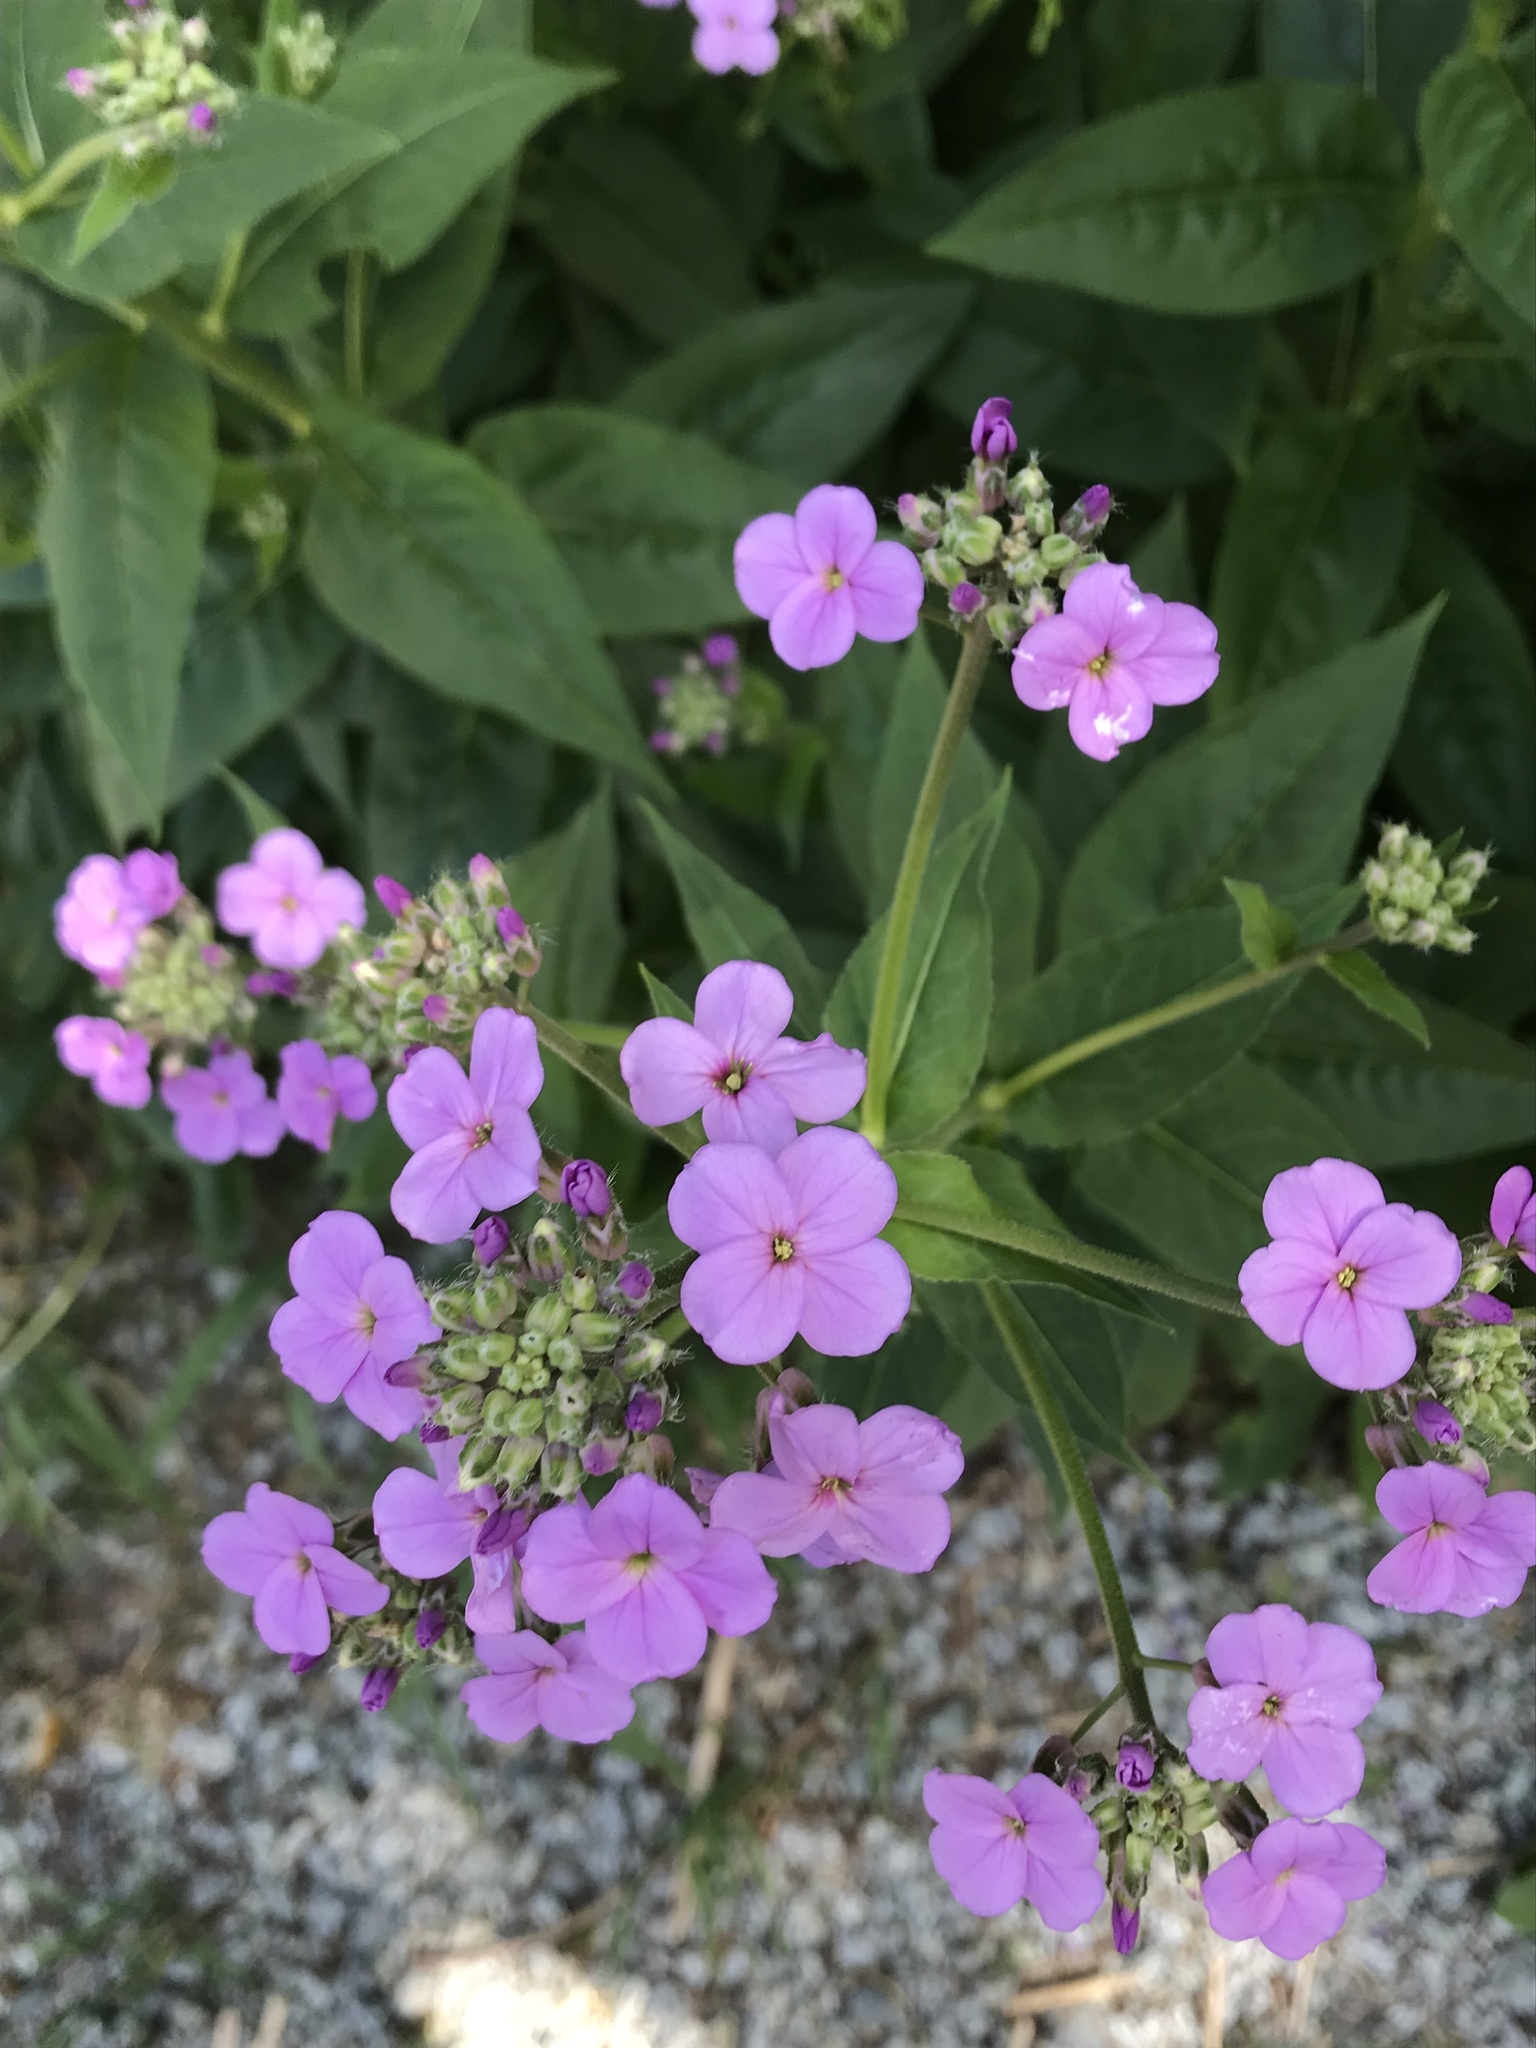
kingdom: Plantae
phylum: Tracheophyta
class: Magnoliopsida
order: Brassicales
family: Brassicaceae
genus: Hesperis
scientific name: Hesperis matronalis
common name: Dame's-violet
